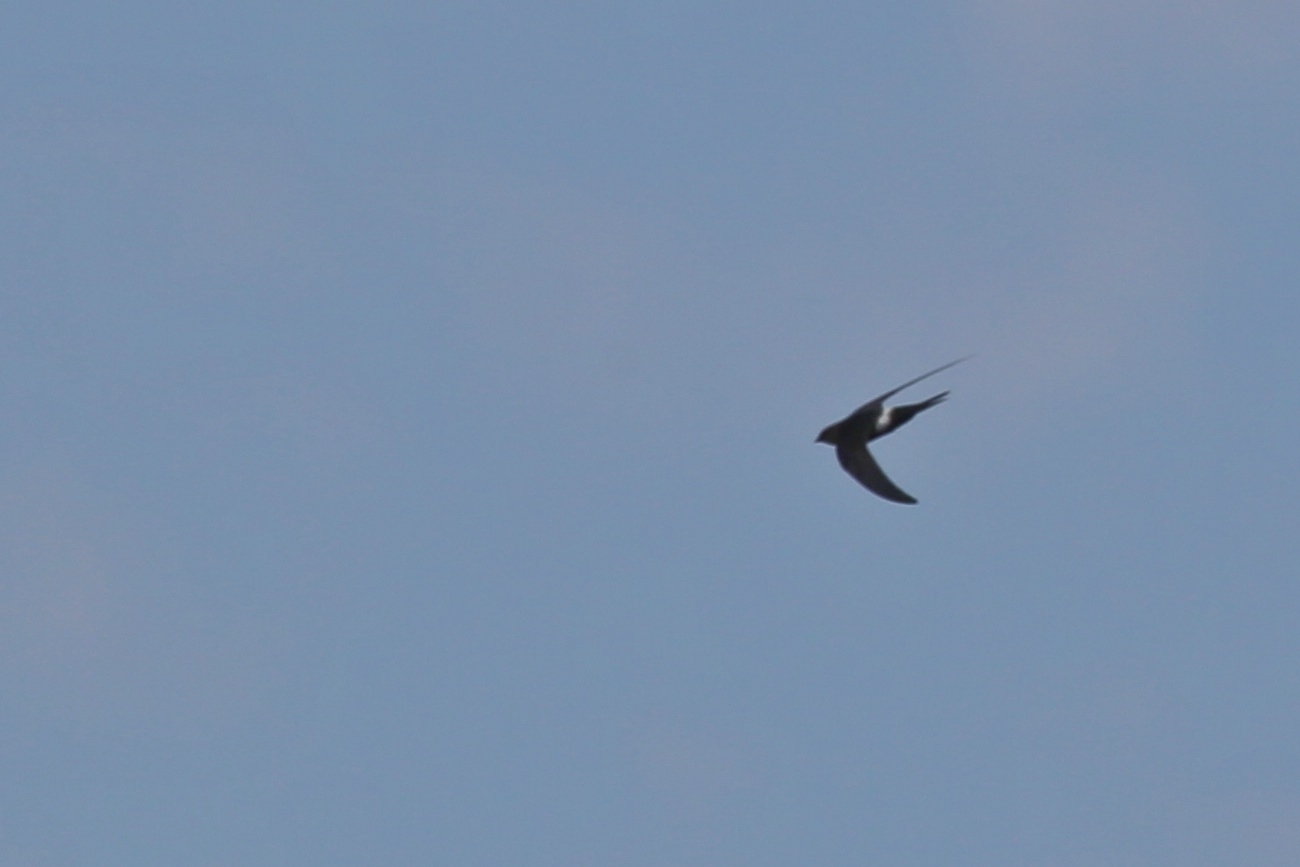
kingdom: Animalia
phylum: Chordata
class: Aves
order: Apodiformes
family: Apodidae
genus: Apus
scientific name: Apus pacificus
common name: Pacific swift
